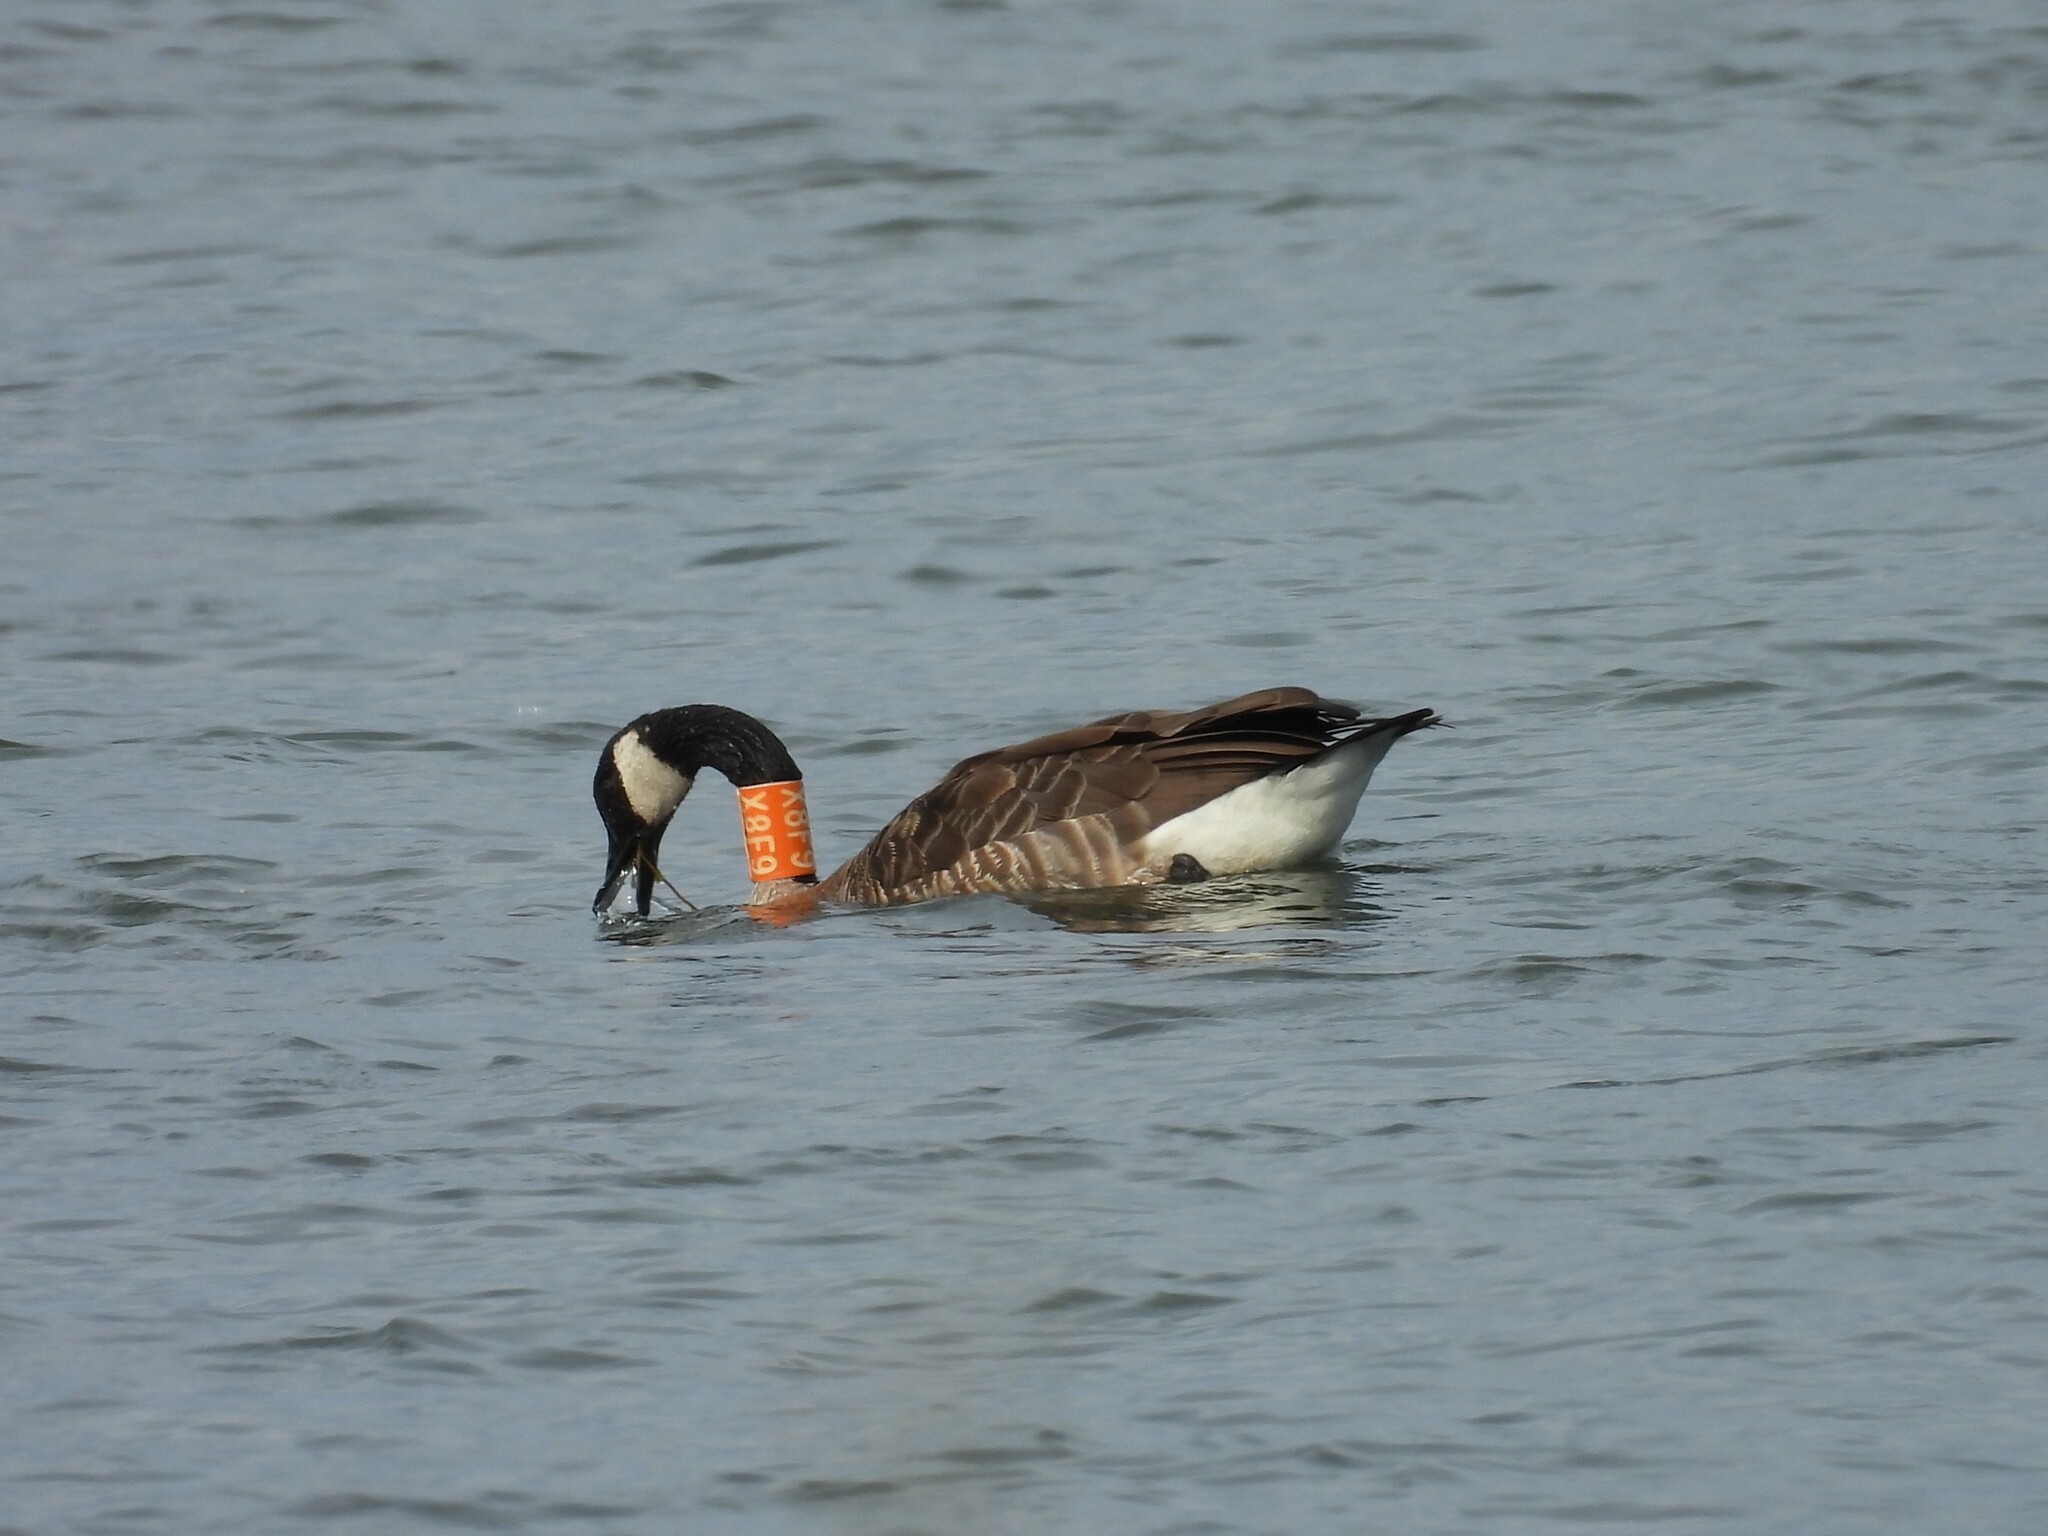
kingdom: Animalia
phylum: Chordata
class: Aves
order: Anseriformes
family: Anatidae
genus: Branta
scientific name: Branta canadensis
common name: Canada goose
